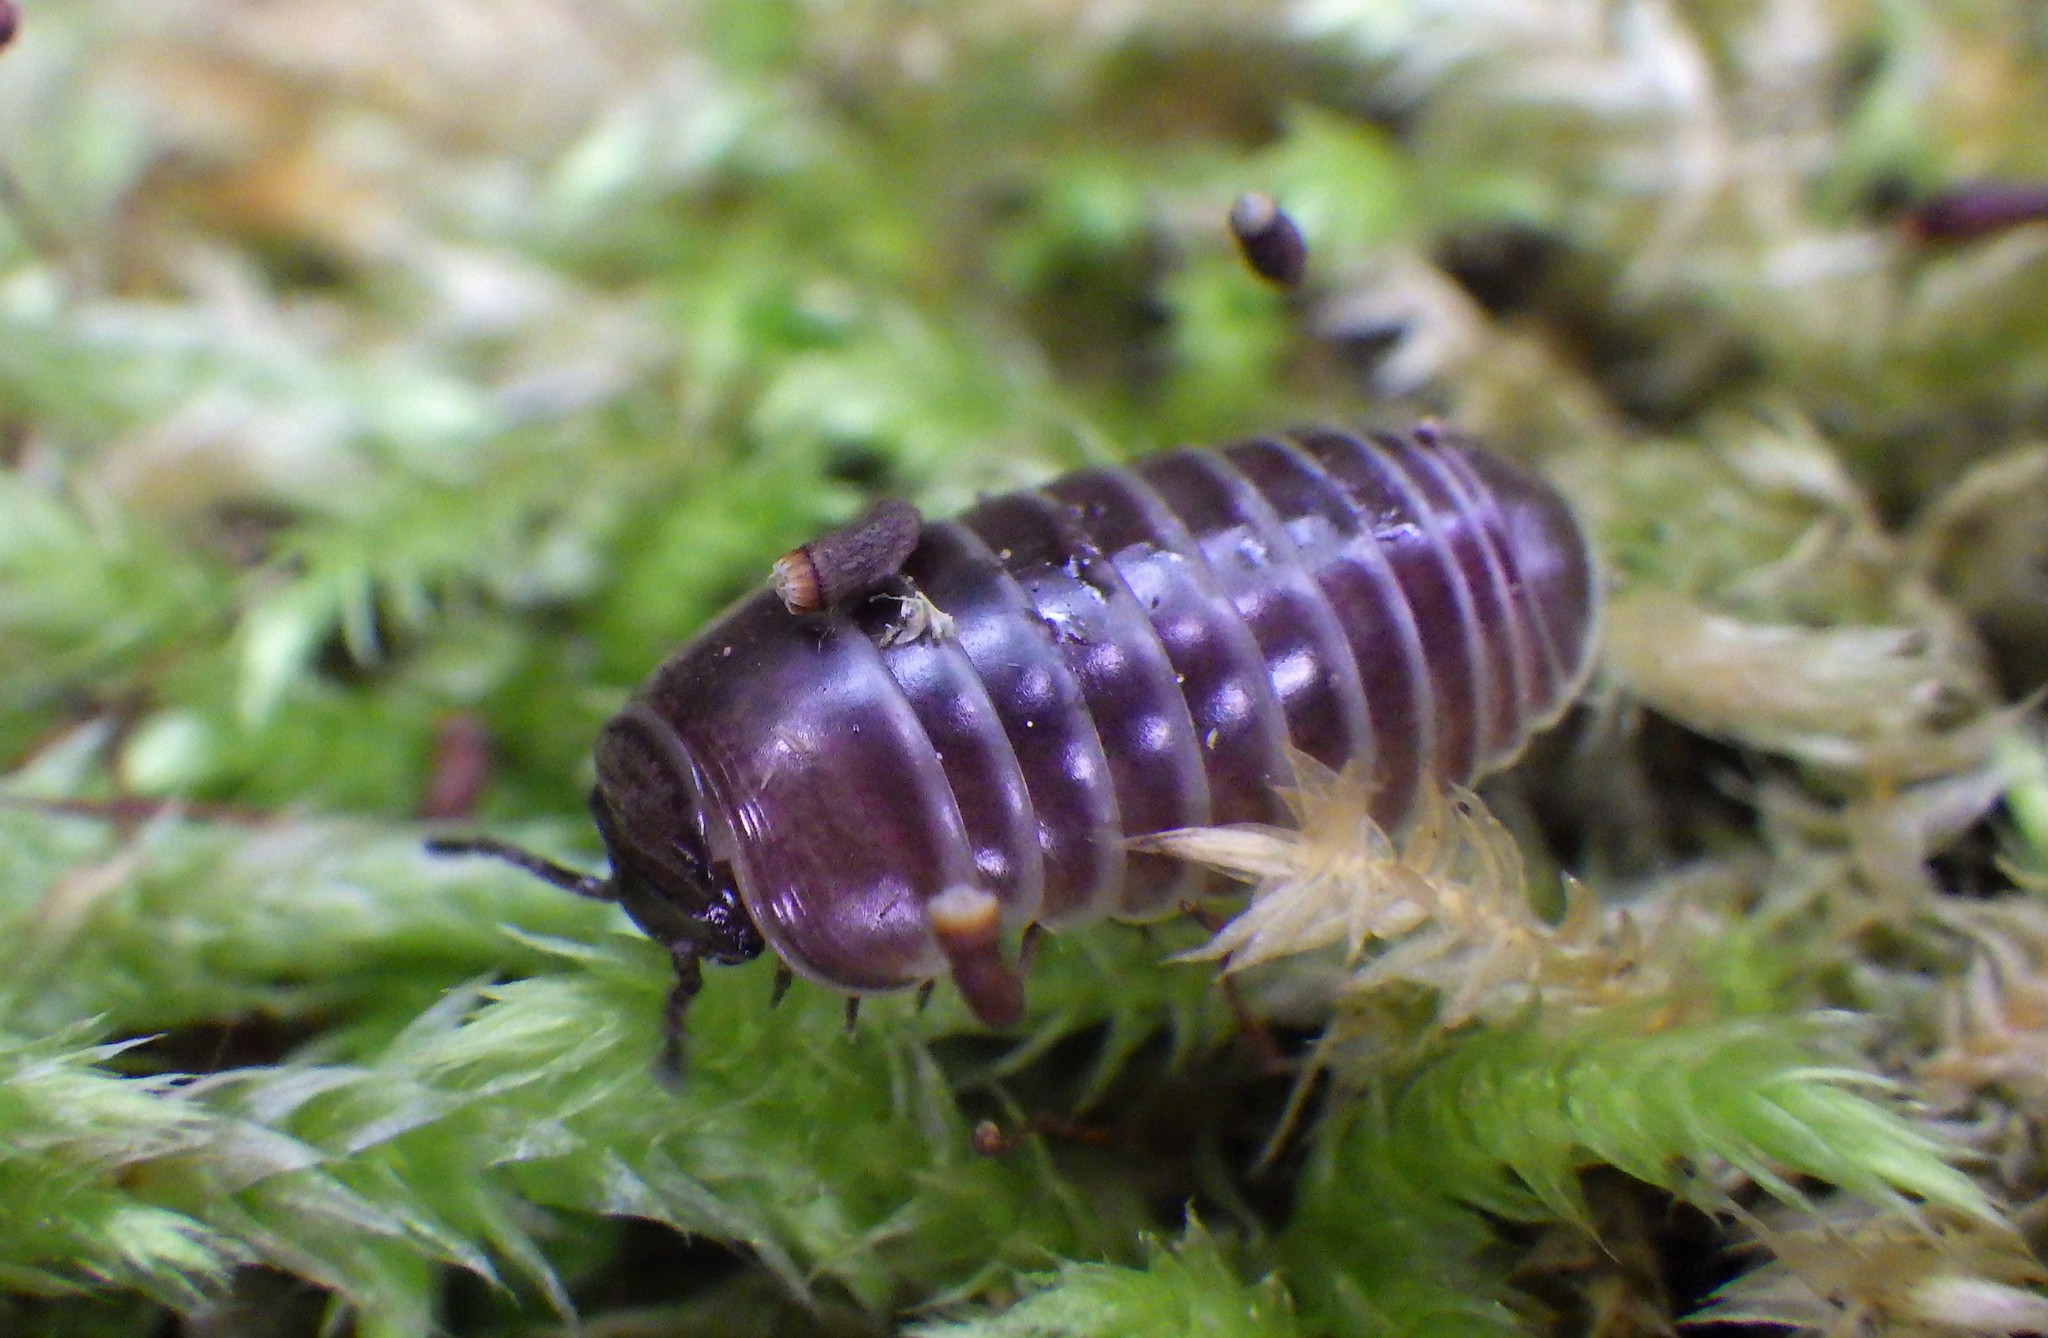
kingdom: Animalia
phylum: Arthropoda
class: Diplopoda
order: Glomerida
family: Glomeridae
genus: Glomeris
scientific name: Glomeris marginata
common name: Bordered pill millipede
